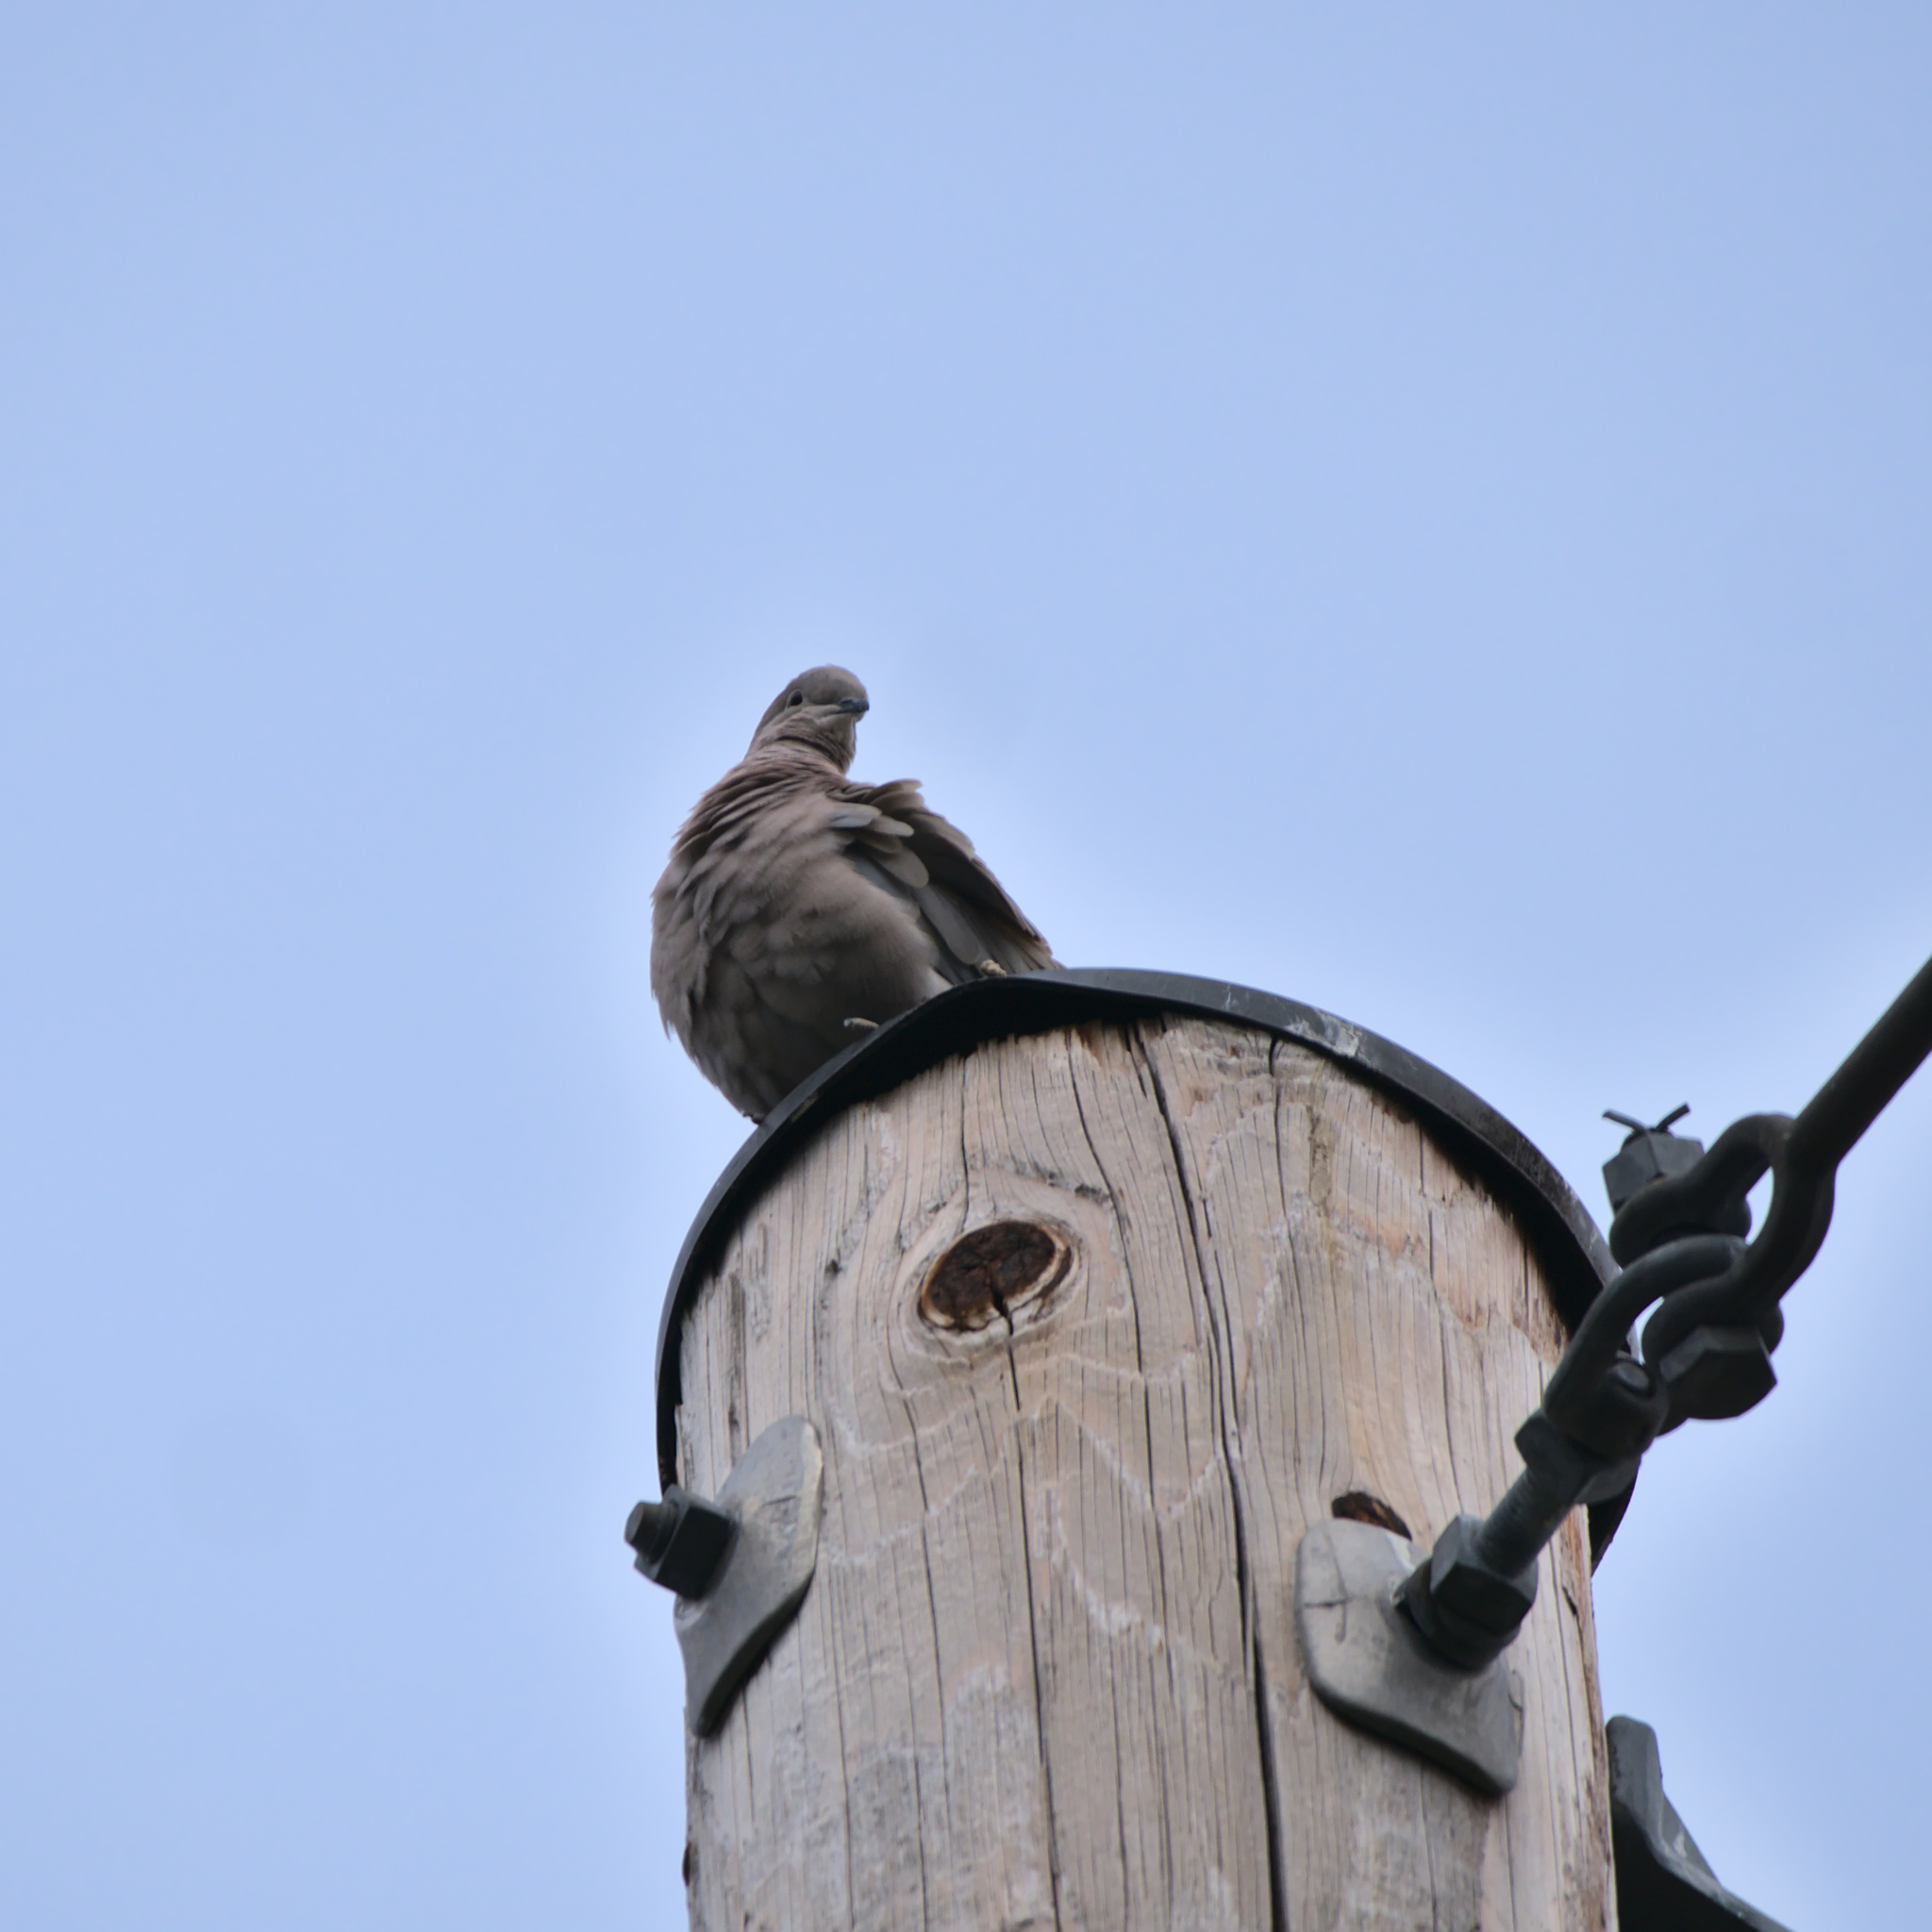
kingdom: Animalia
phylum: Chordata
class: Aves
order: Columbiformes
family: Columbidae
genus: Streptopelia
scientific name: Streptopelia decaocto
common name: Eurasian collared dove
